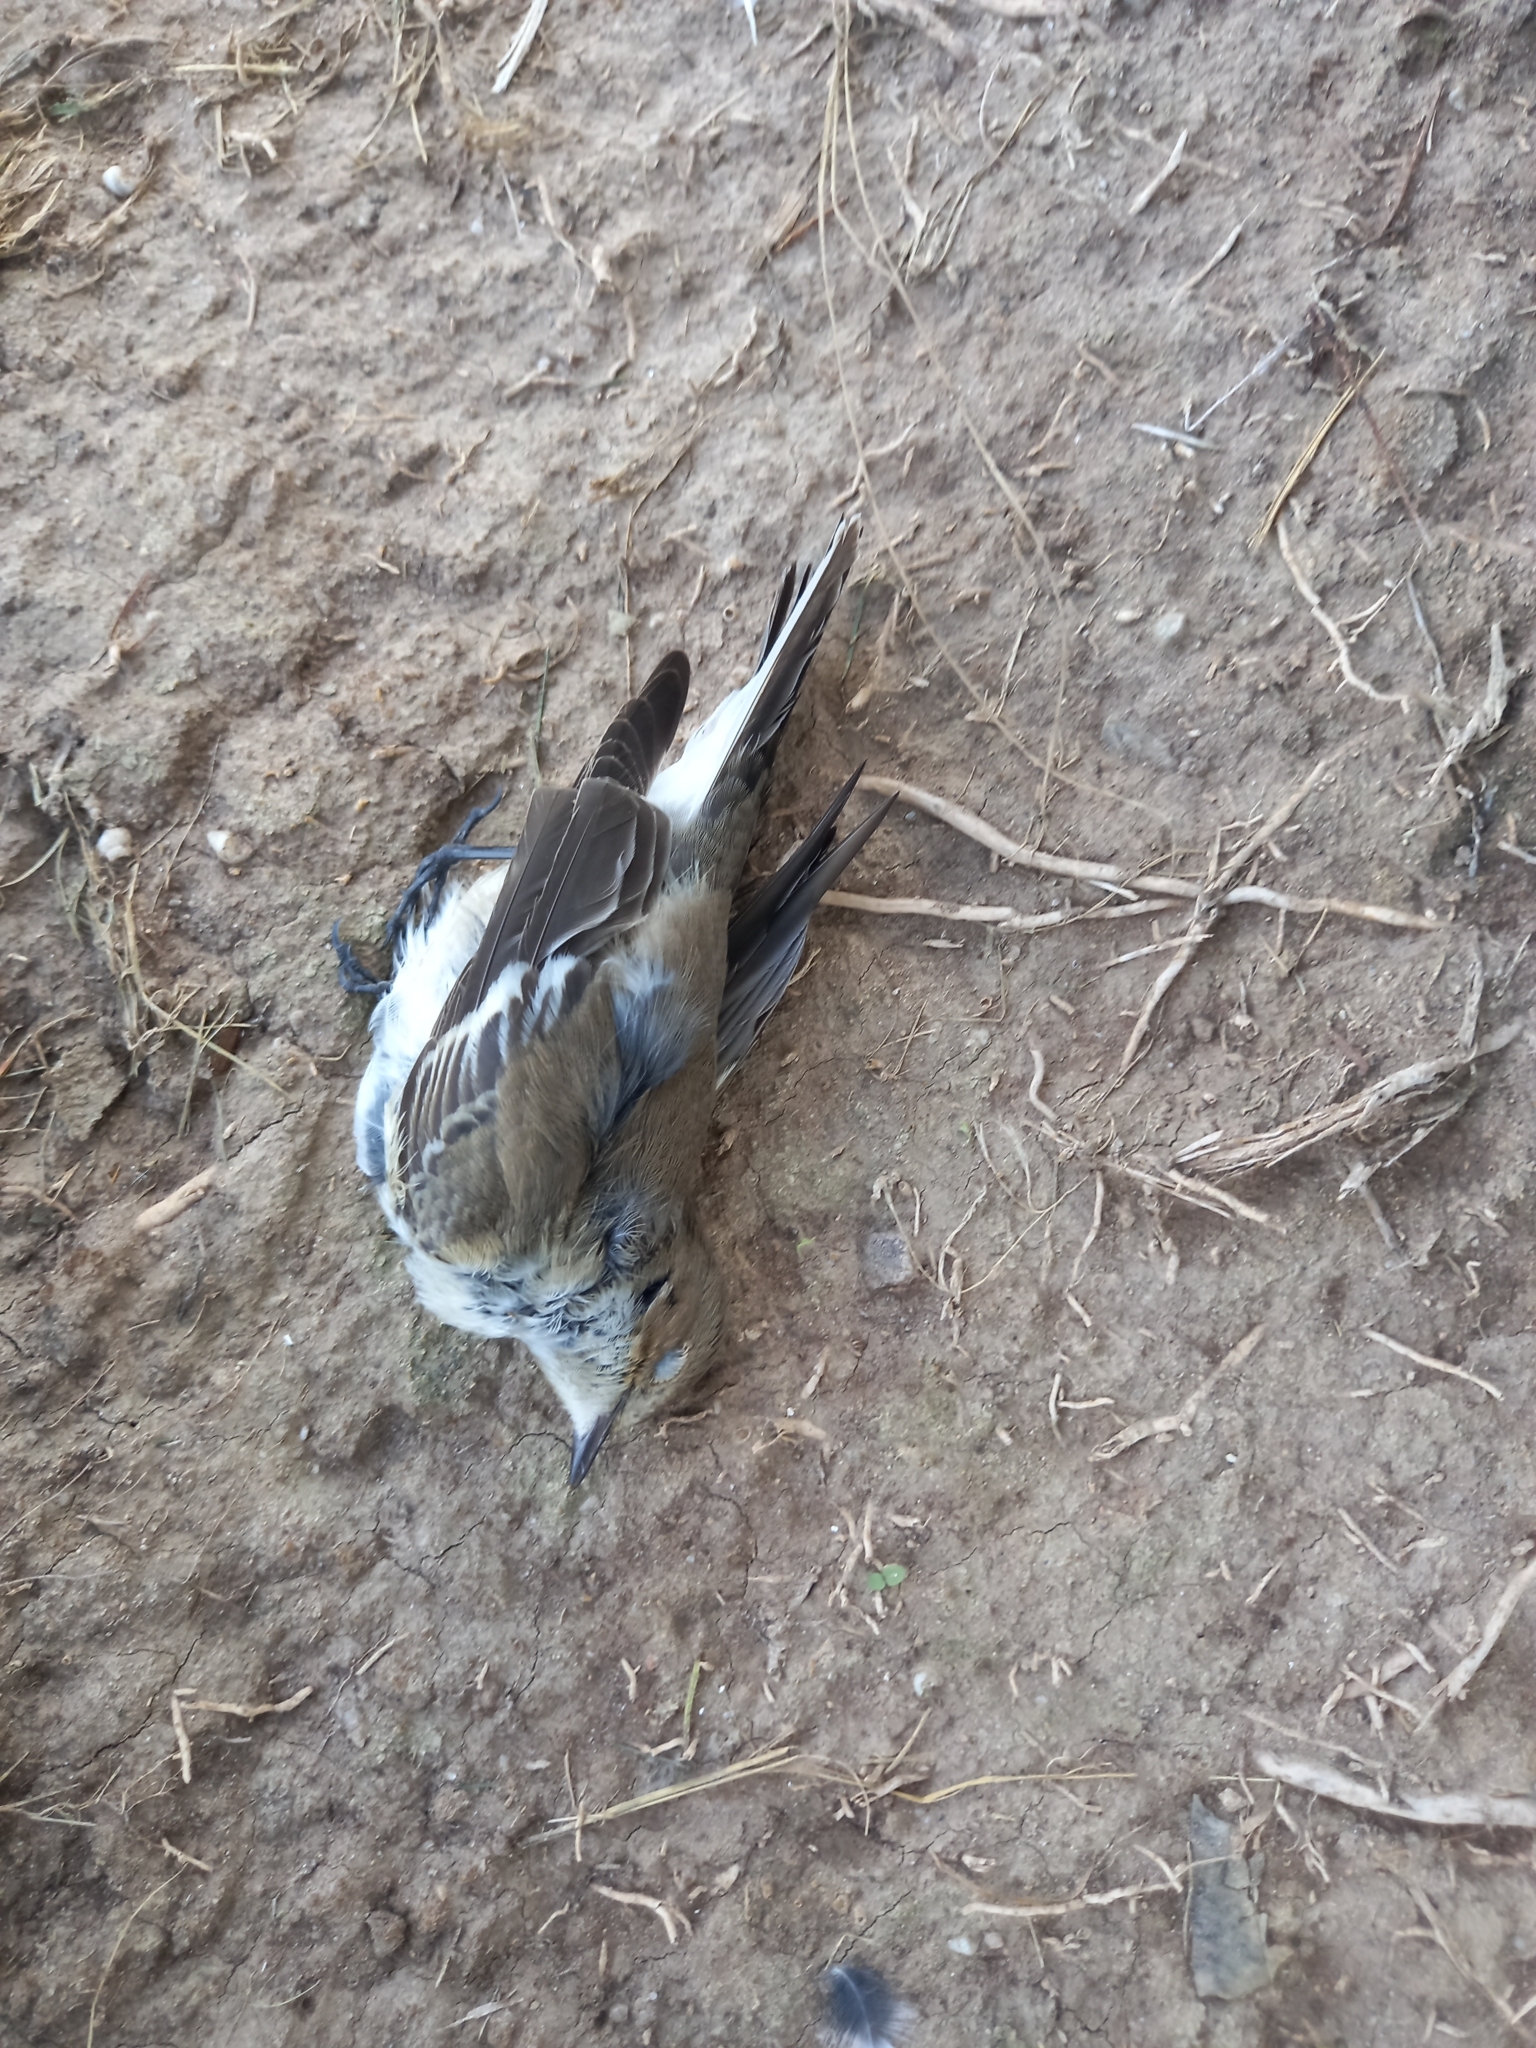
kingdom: Animalia
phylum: Chordata
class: Aves
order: Passeriformes
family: Muscicapidae
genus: Ficedula
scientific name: Ficedula hypoleuca
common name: European pied flycatcher
